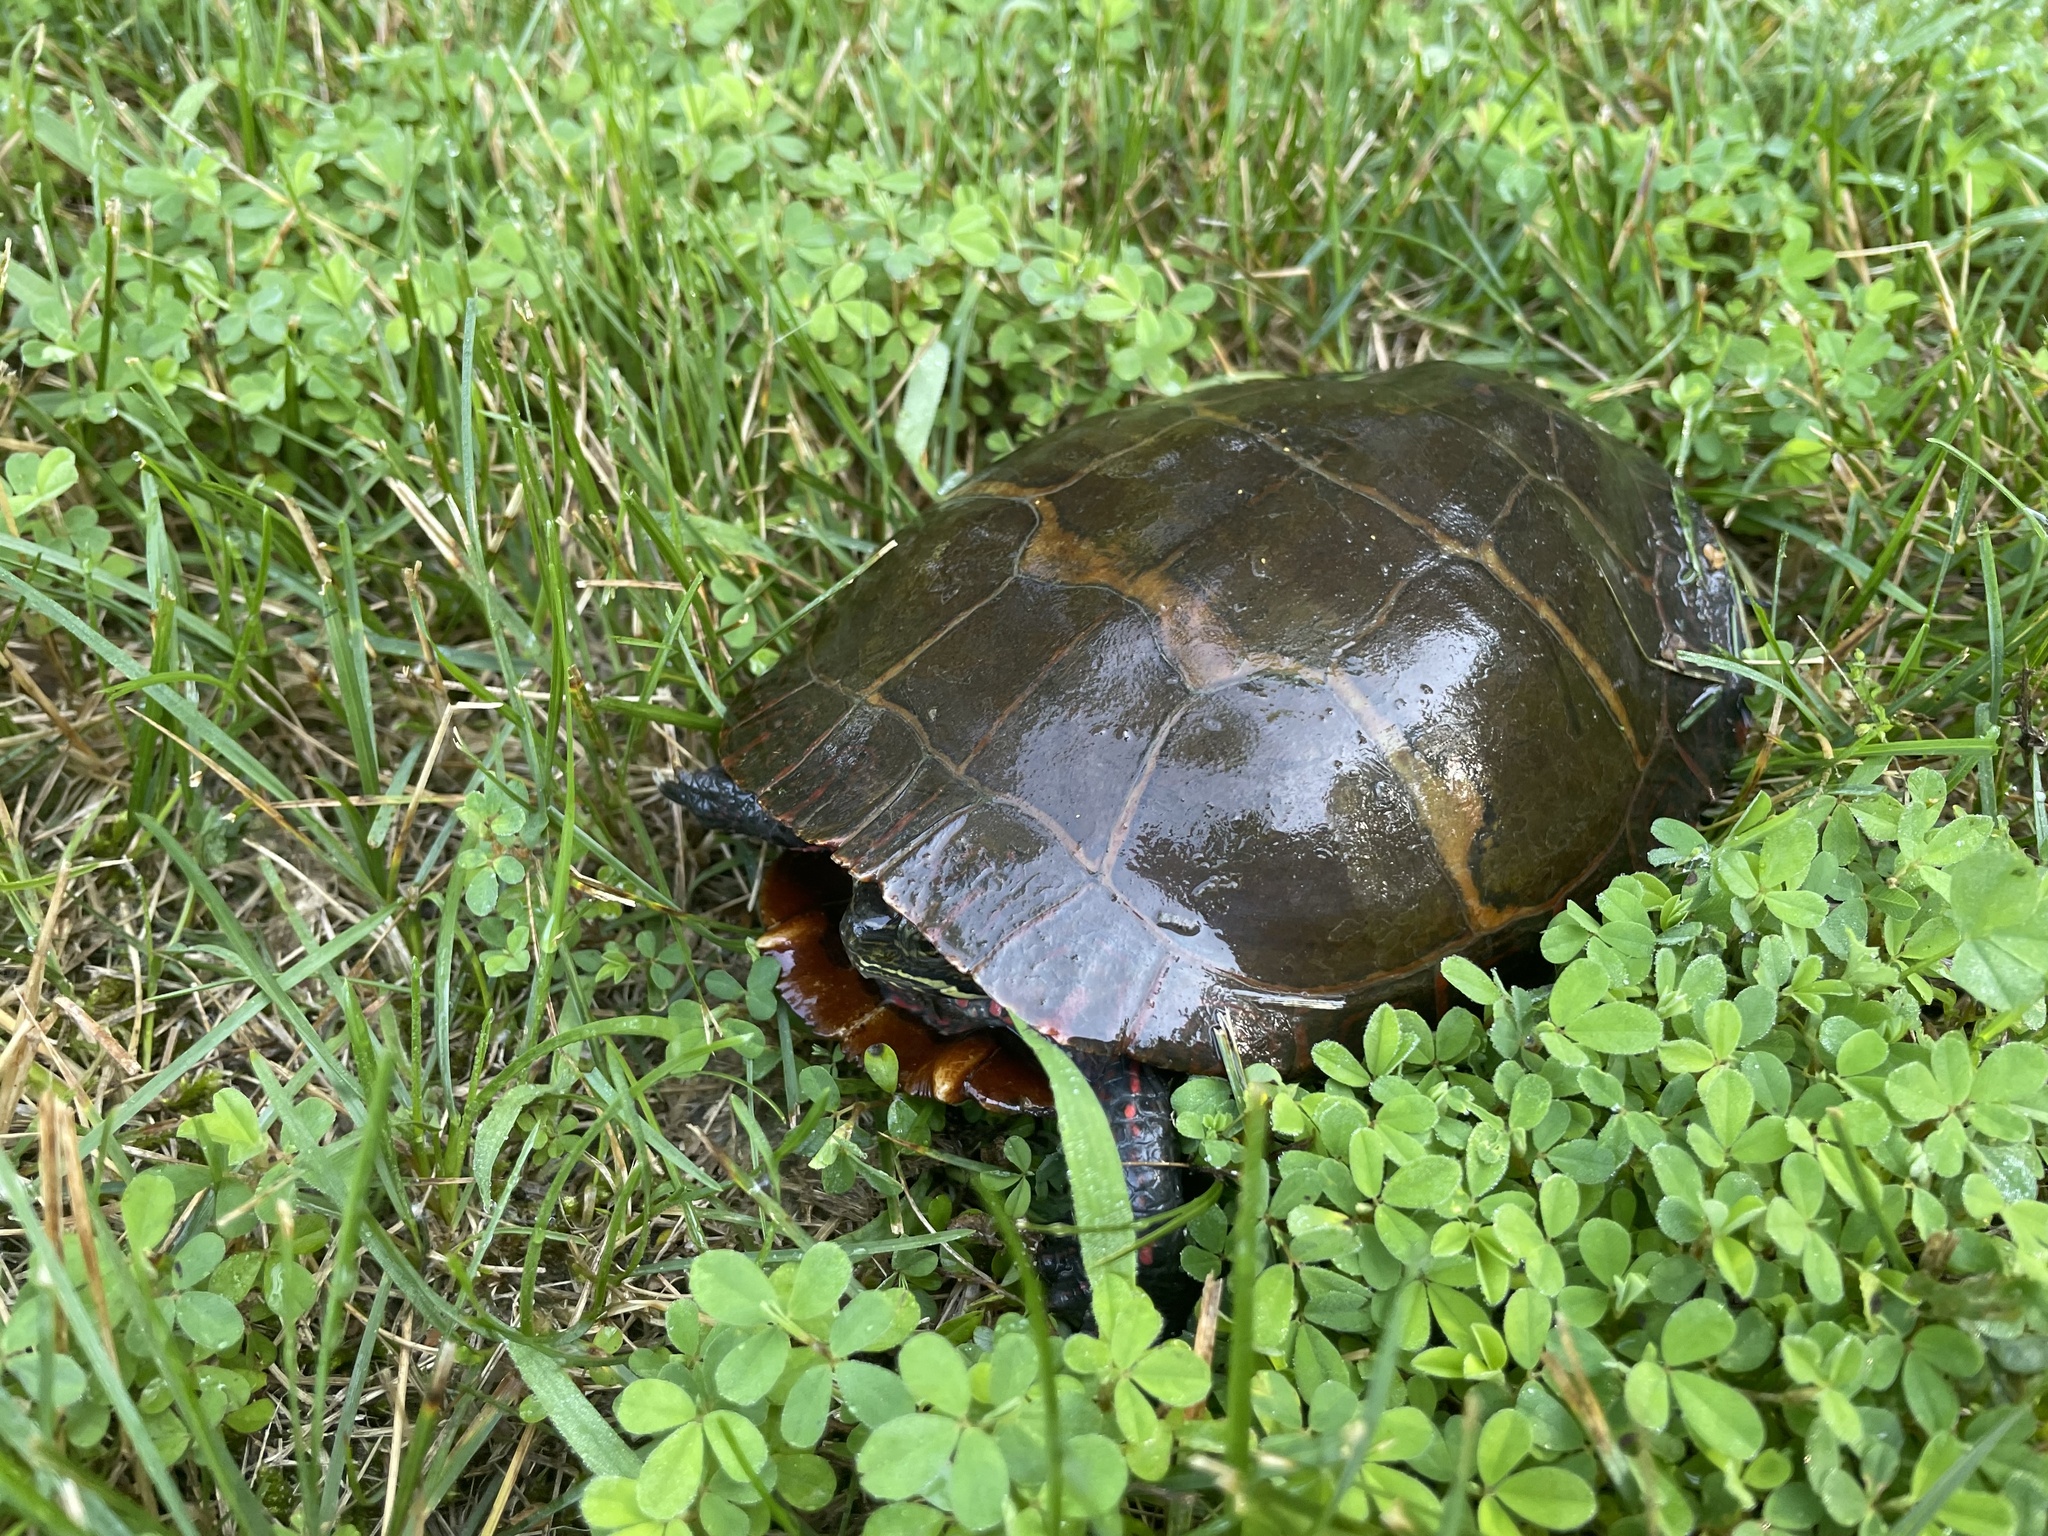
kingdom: Animalia
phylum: Chordata
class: Testudines
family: Emydidae
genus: Chrysemys
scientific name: Chrysemys picta
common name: Painted turtle
